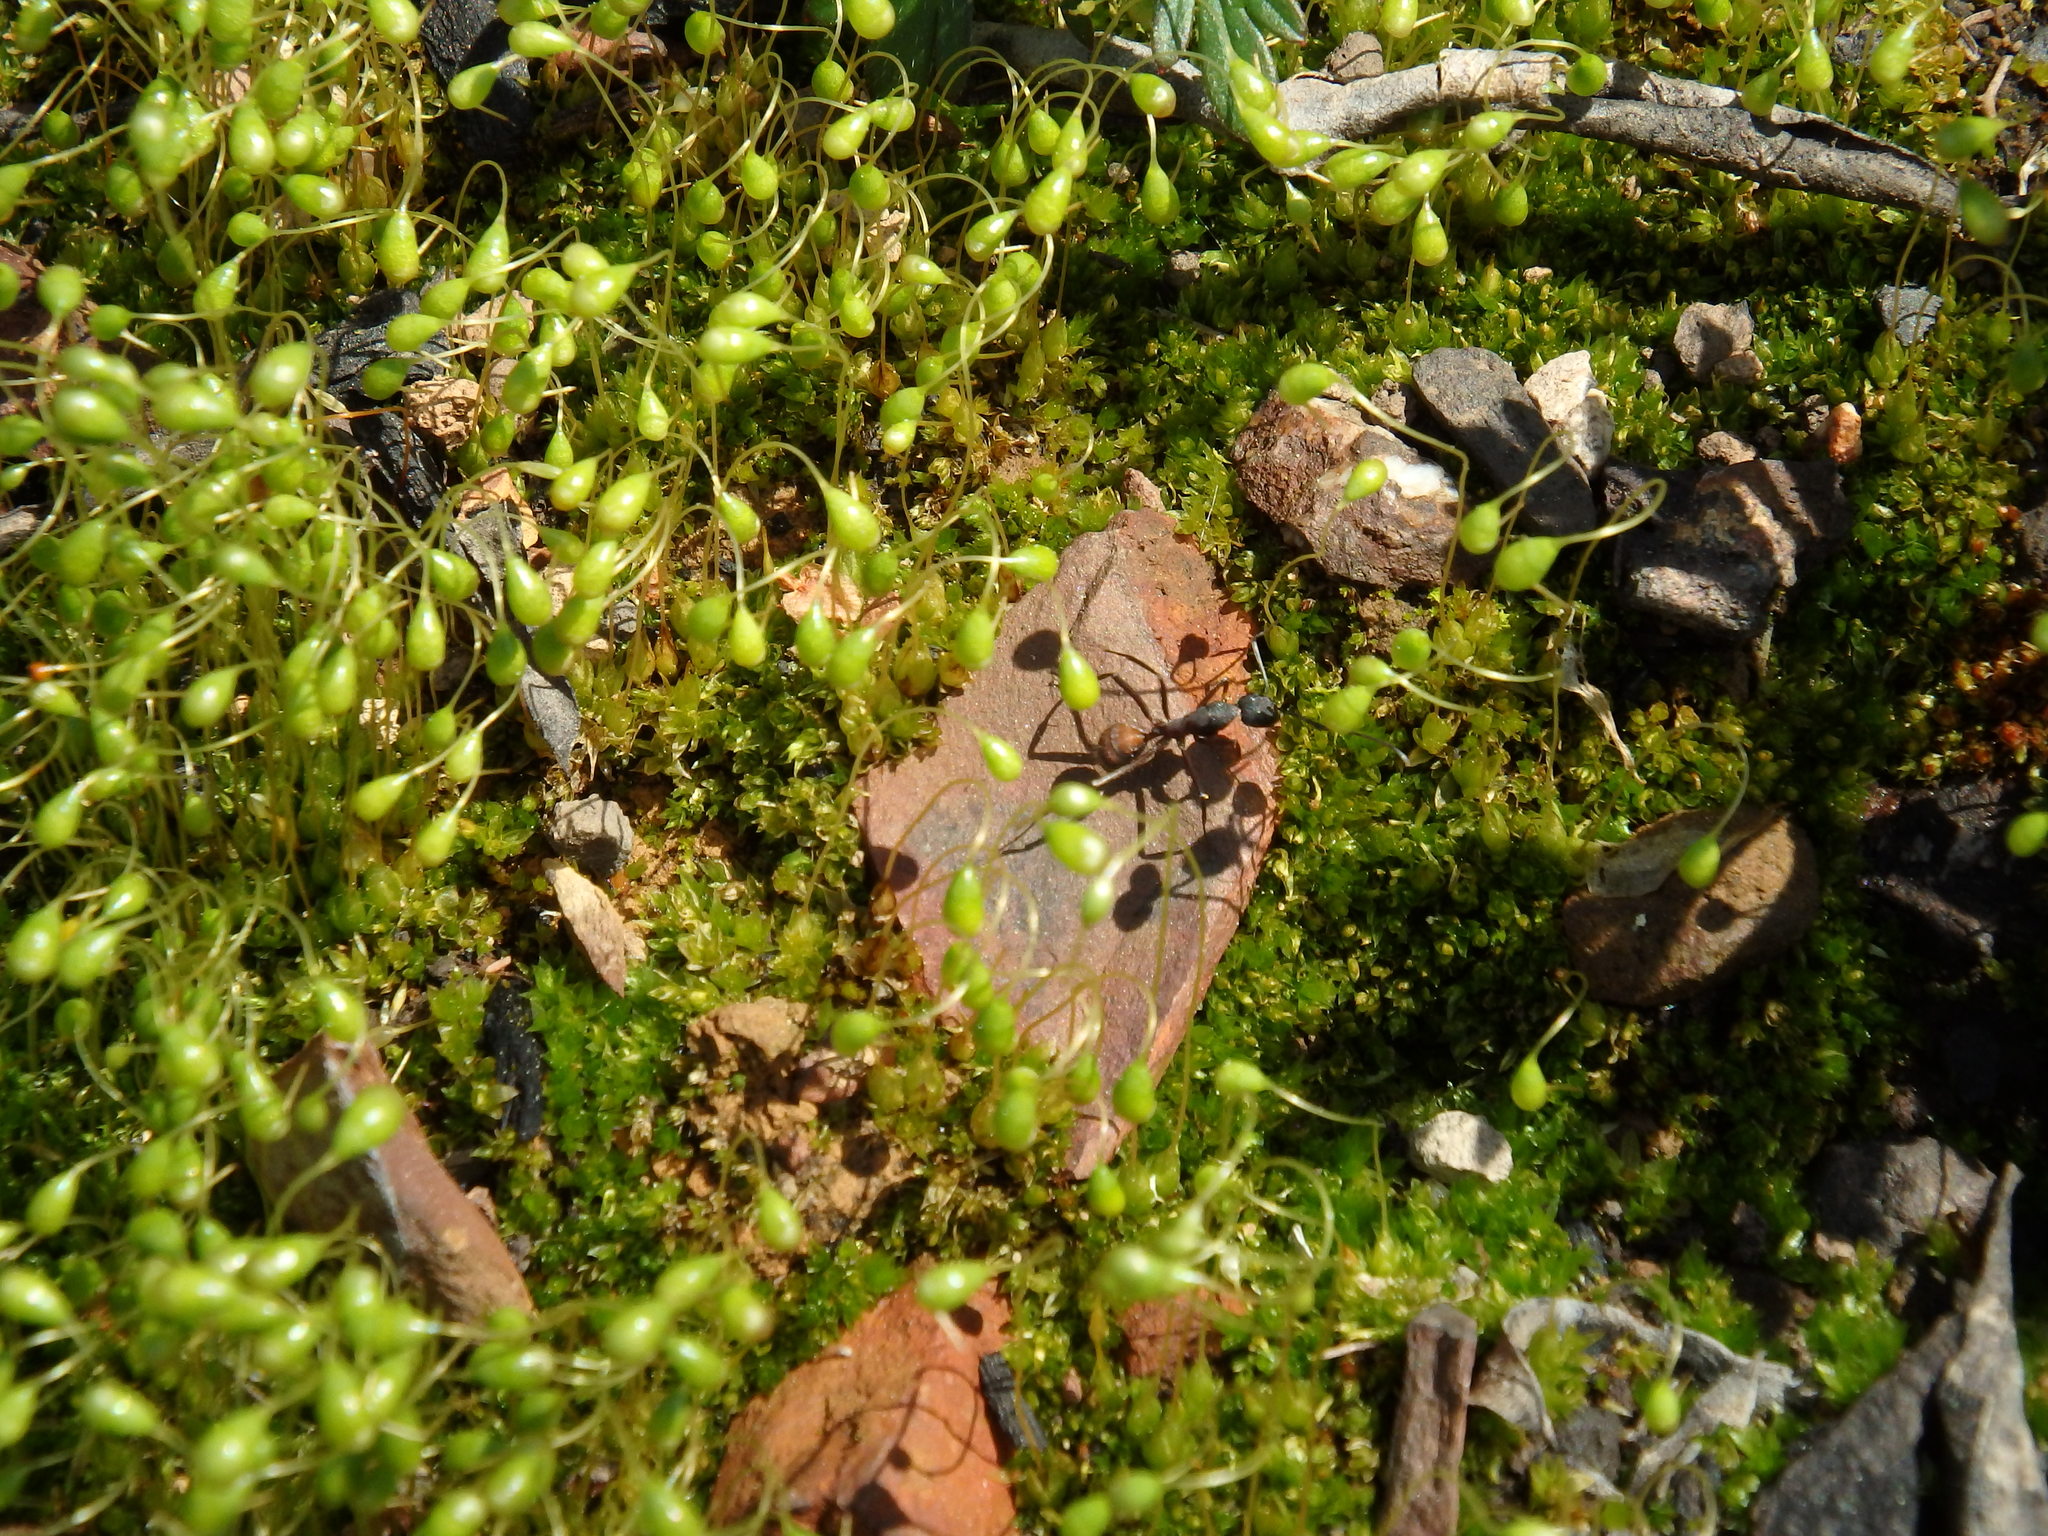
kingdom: Animalia
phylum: Arthropoda
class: Insecta
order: Hymenoptera
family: Formicidae
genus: Camponotus
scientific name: Camponotus cruentatus
